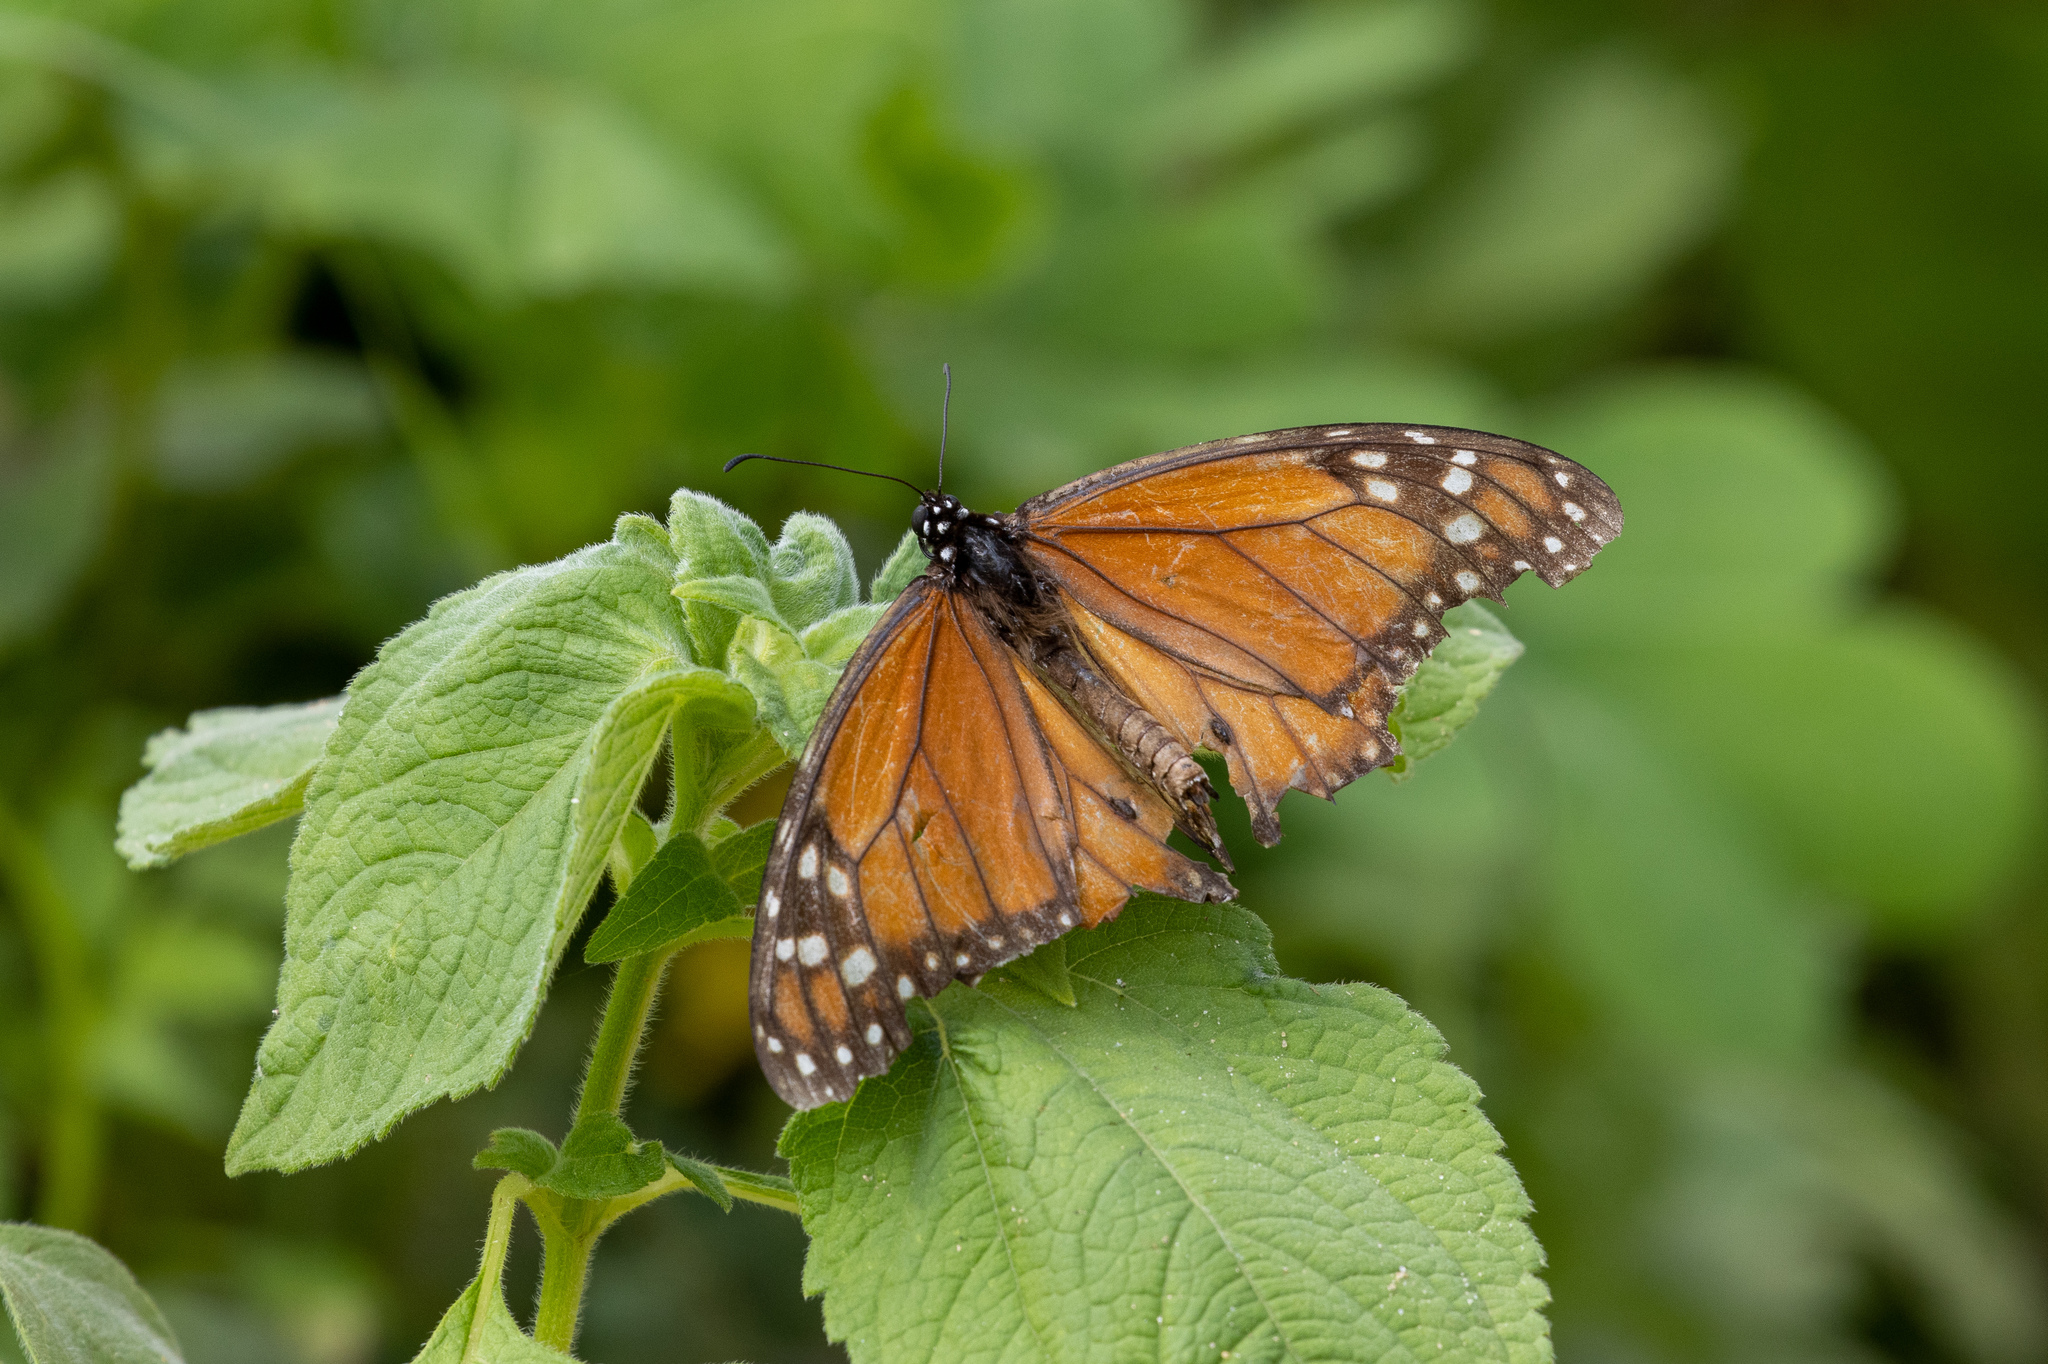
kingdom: Animalia
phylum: Arthropoda
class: Insecta
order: Lepidoptera
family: Nymphalidae
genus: Danaus
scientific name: Danaus erippus
